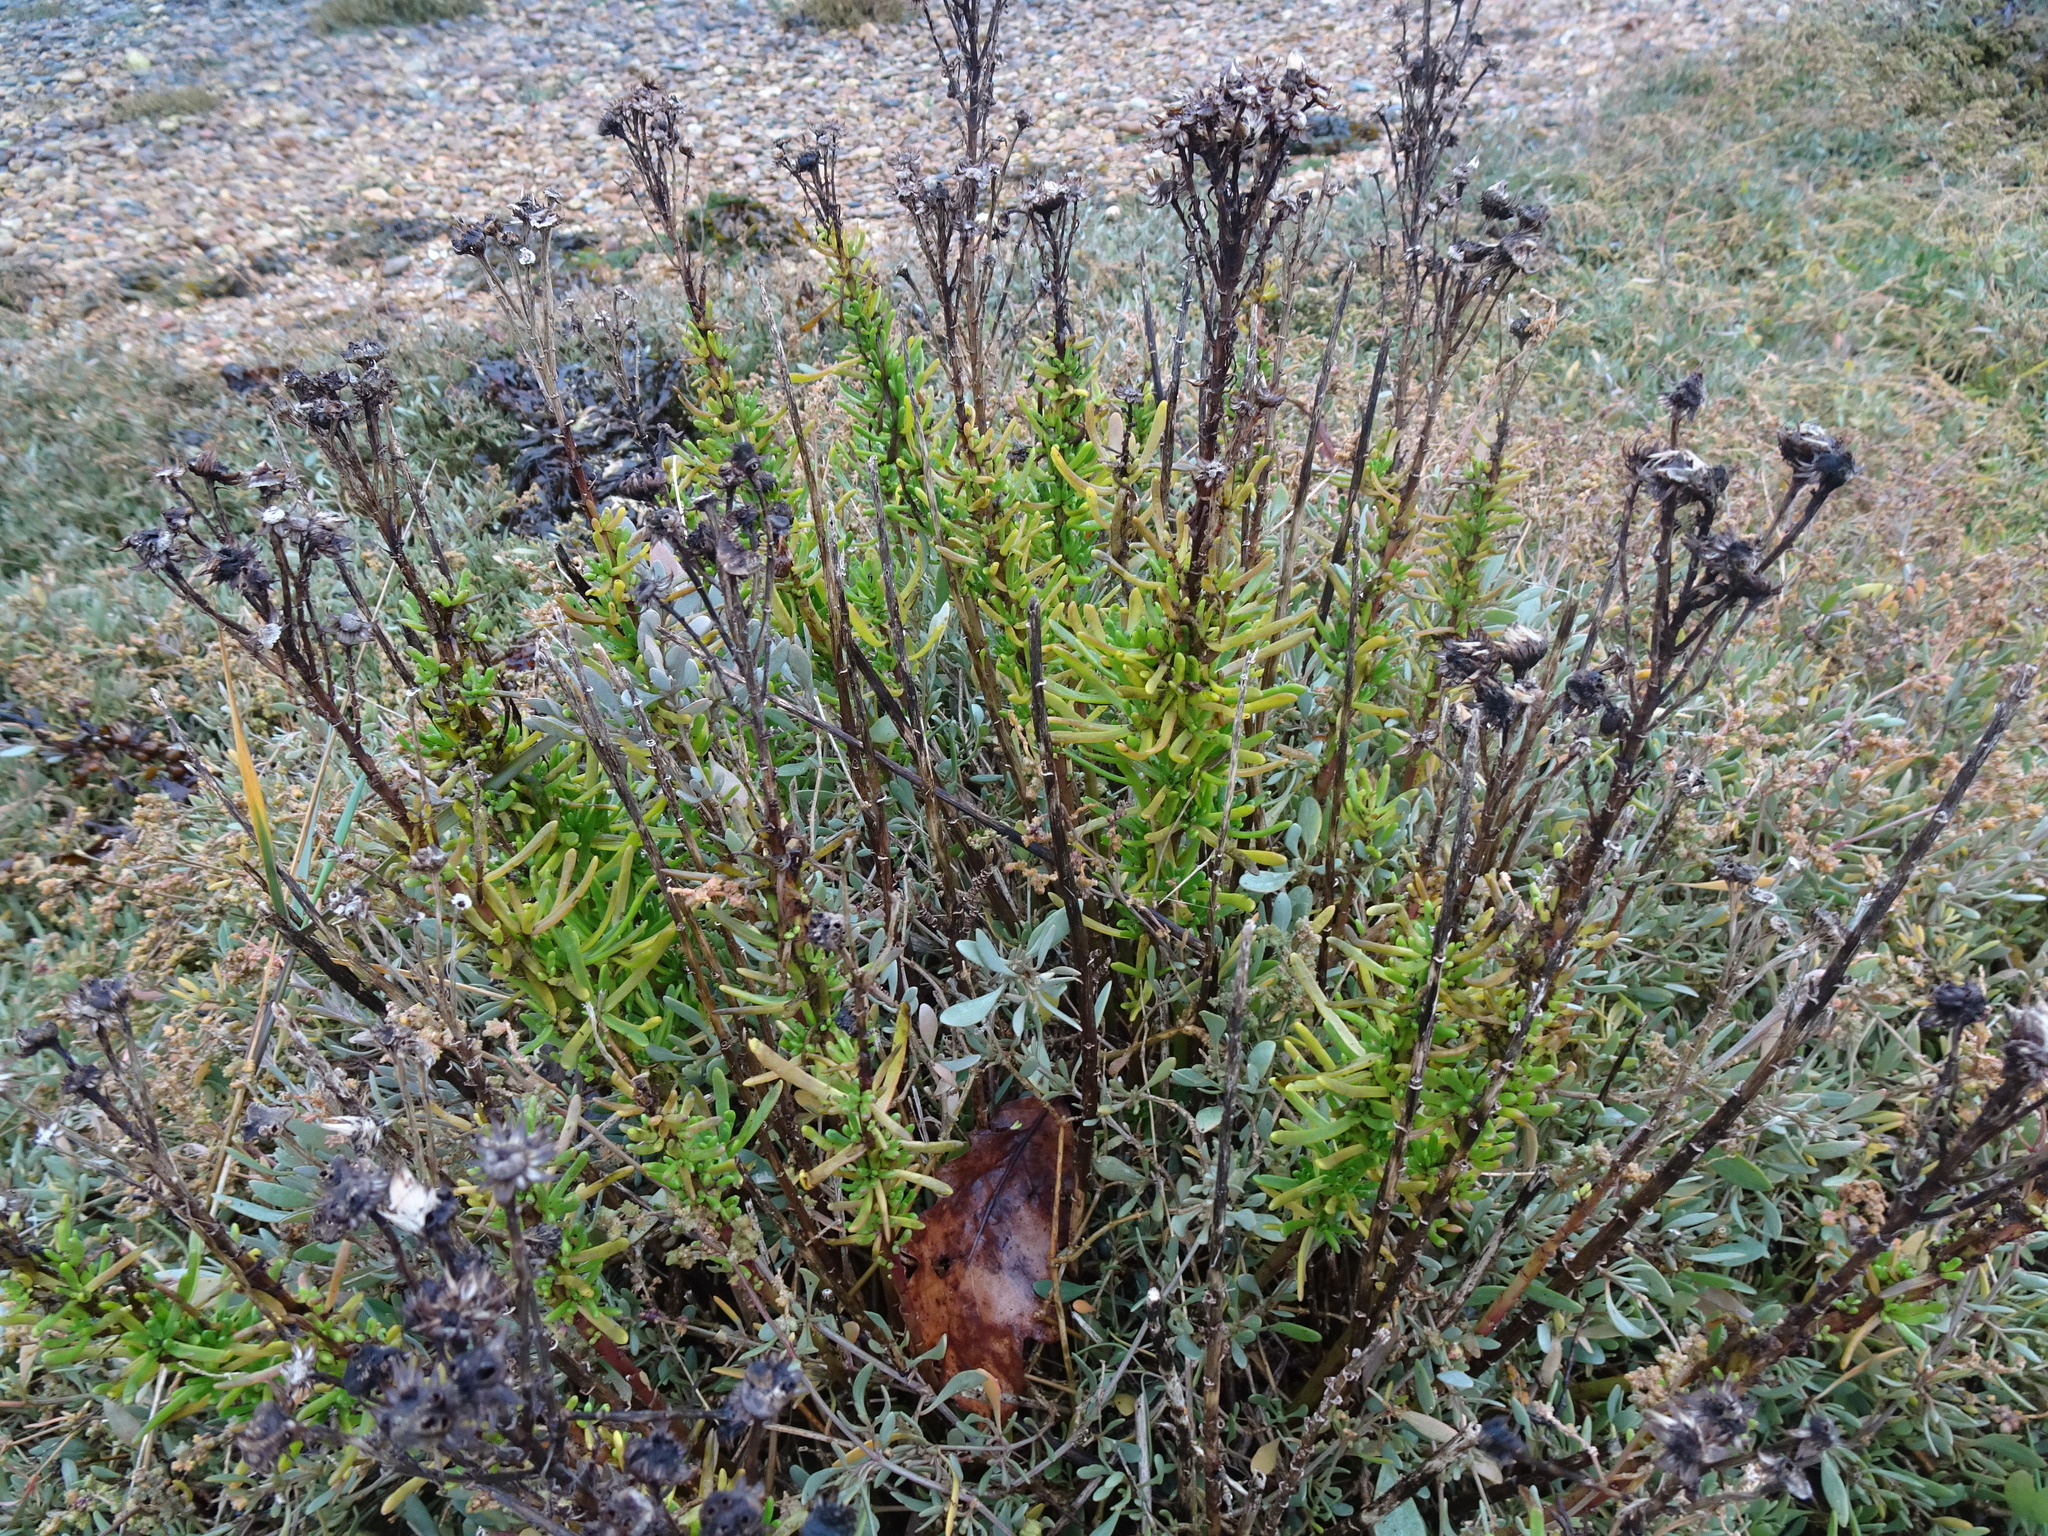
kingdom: Plantae
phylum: Tracheophyta
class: Magnoliopsida
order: Asterales
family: Asteraceae
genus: Limbarda
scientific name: Limbarda crithmoides
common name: Golden samphire
